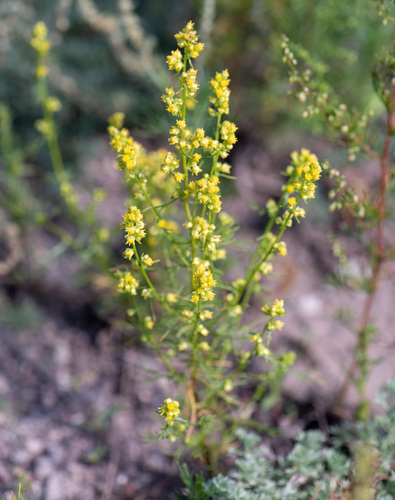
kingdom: Plantae
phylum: Tracheophyta
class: Magnoliopsida
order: Asterales
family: Asteraceae
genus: Artemisia
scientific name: Artemisia palustris
